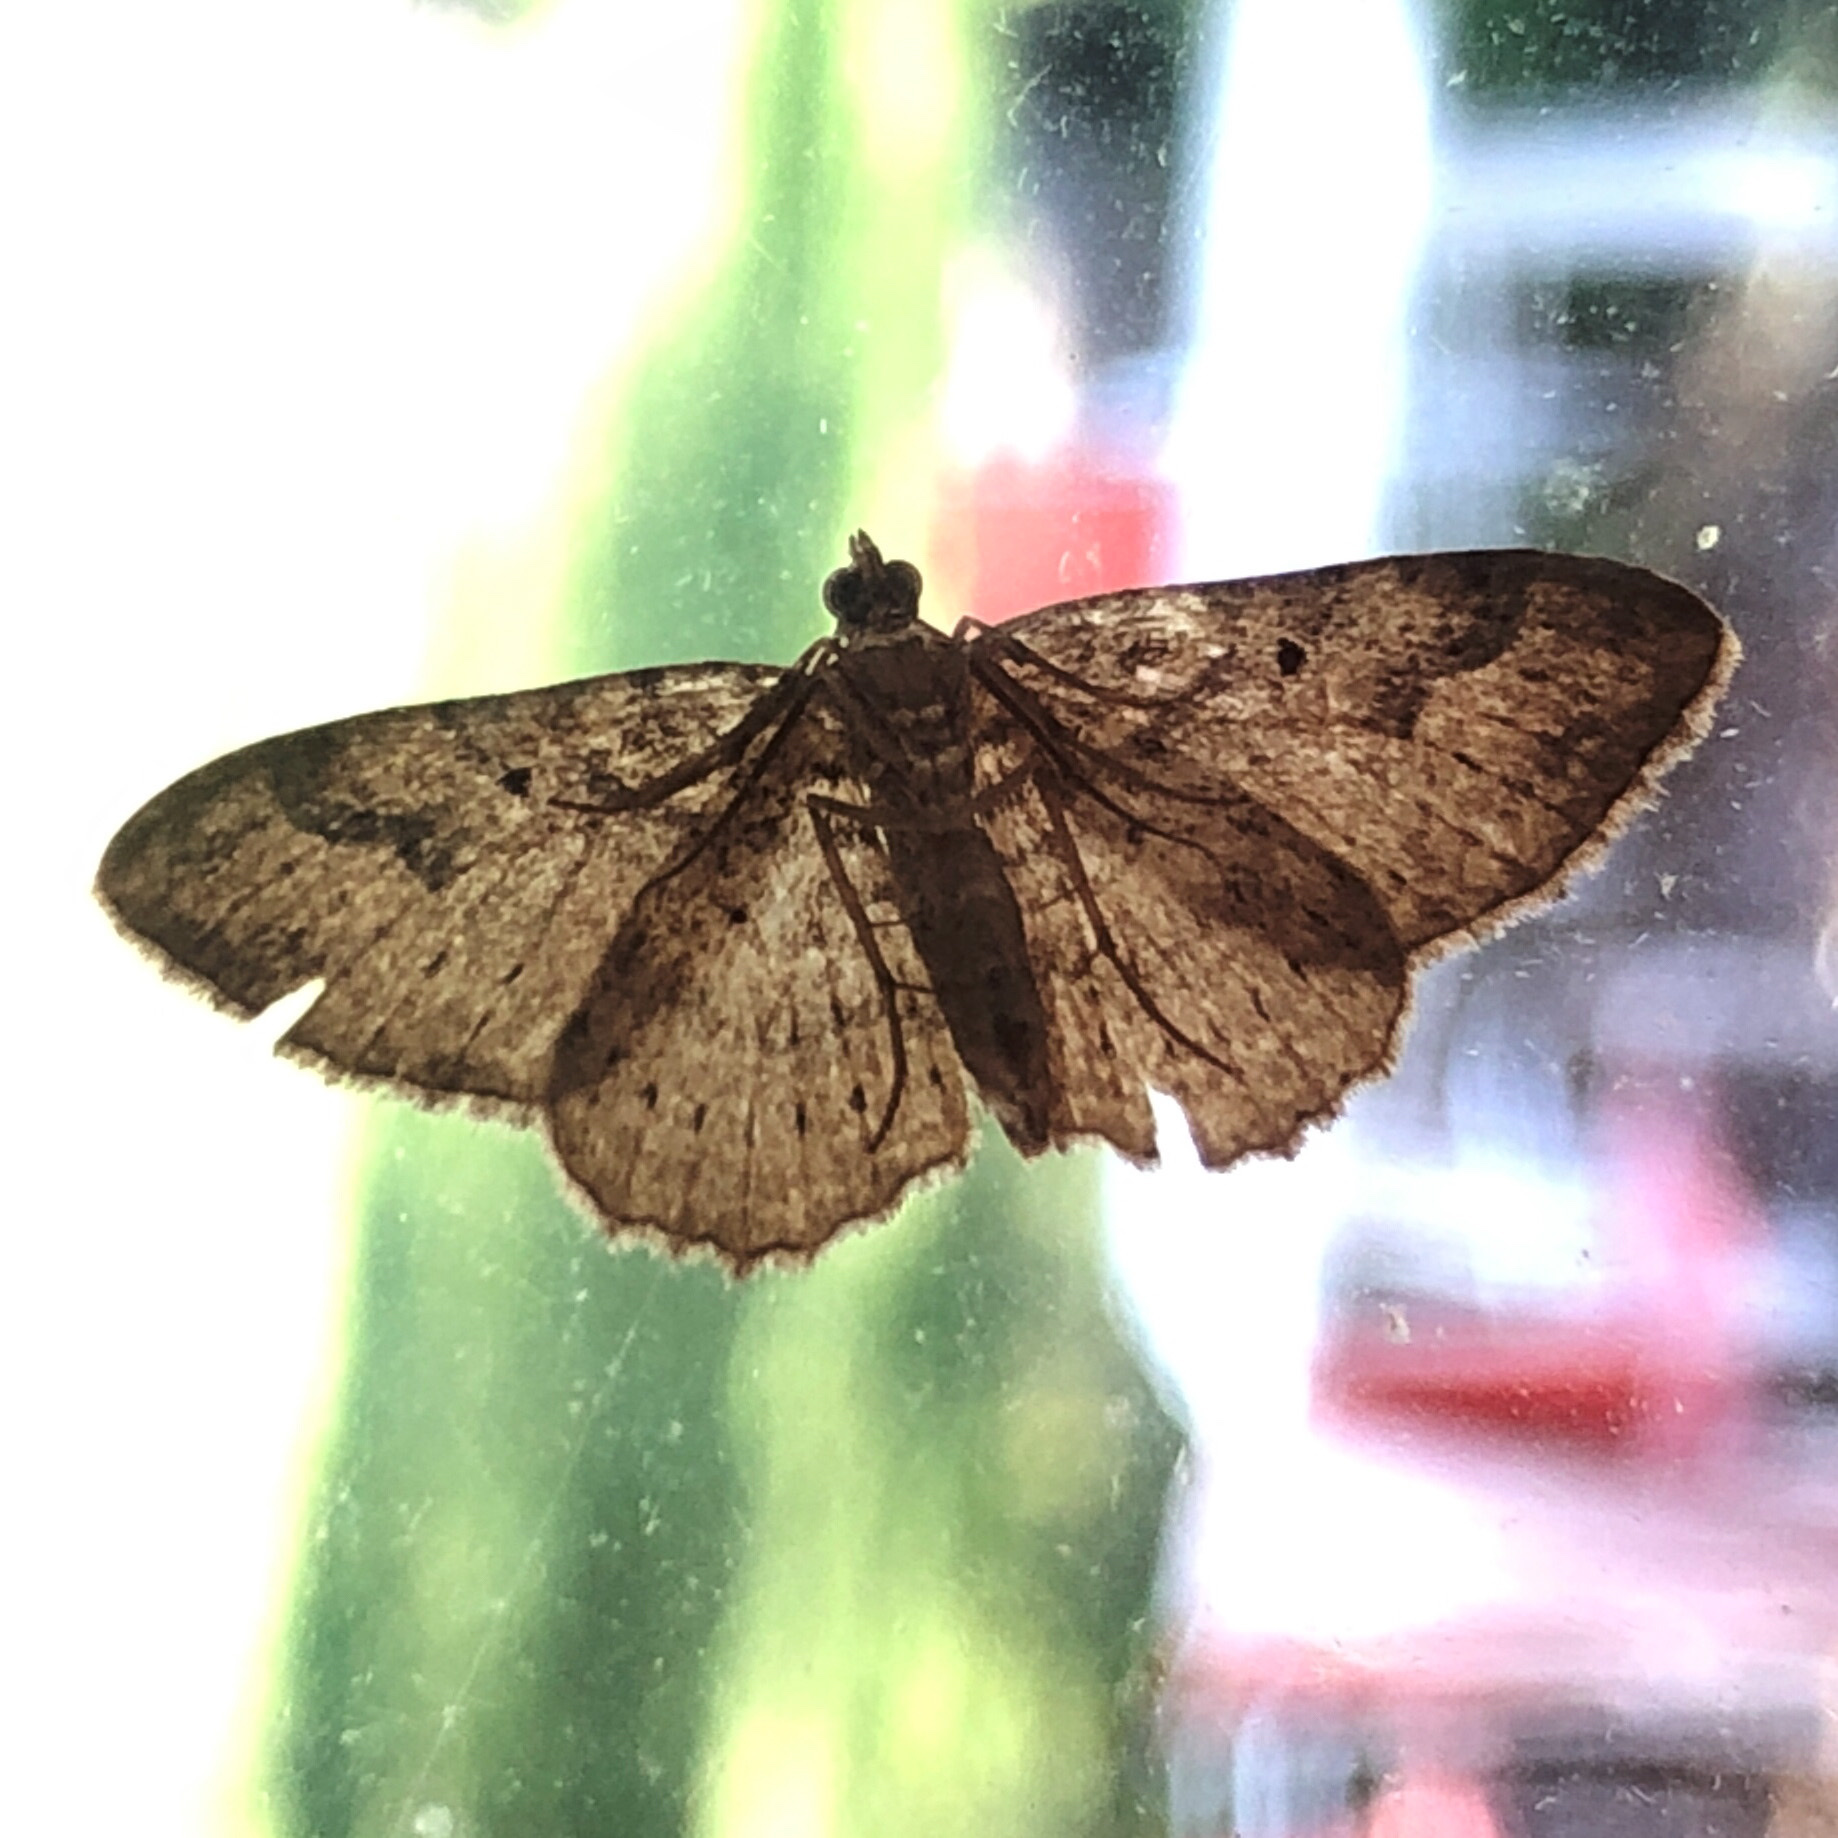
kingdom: Animalia
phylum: Arthropoda
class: Insecta
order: Lepidoptera
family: Geometridae
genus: Costaconvexa
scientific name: Costaconvexa centrostrigaria
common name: Bent-line carpet
